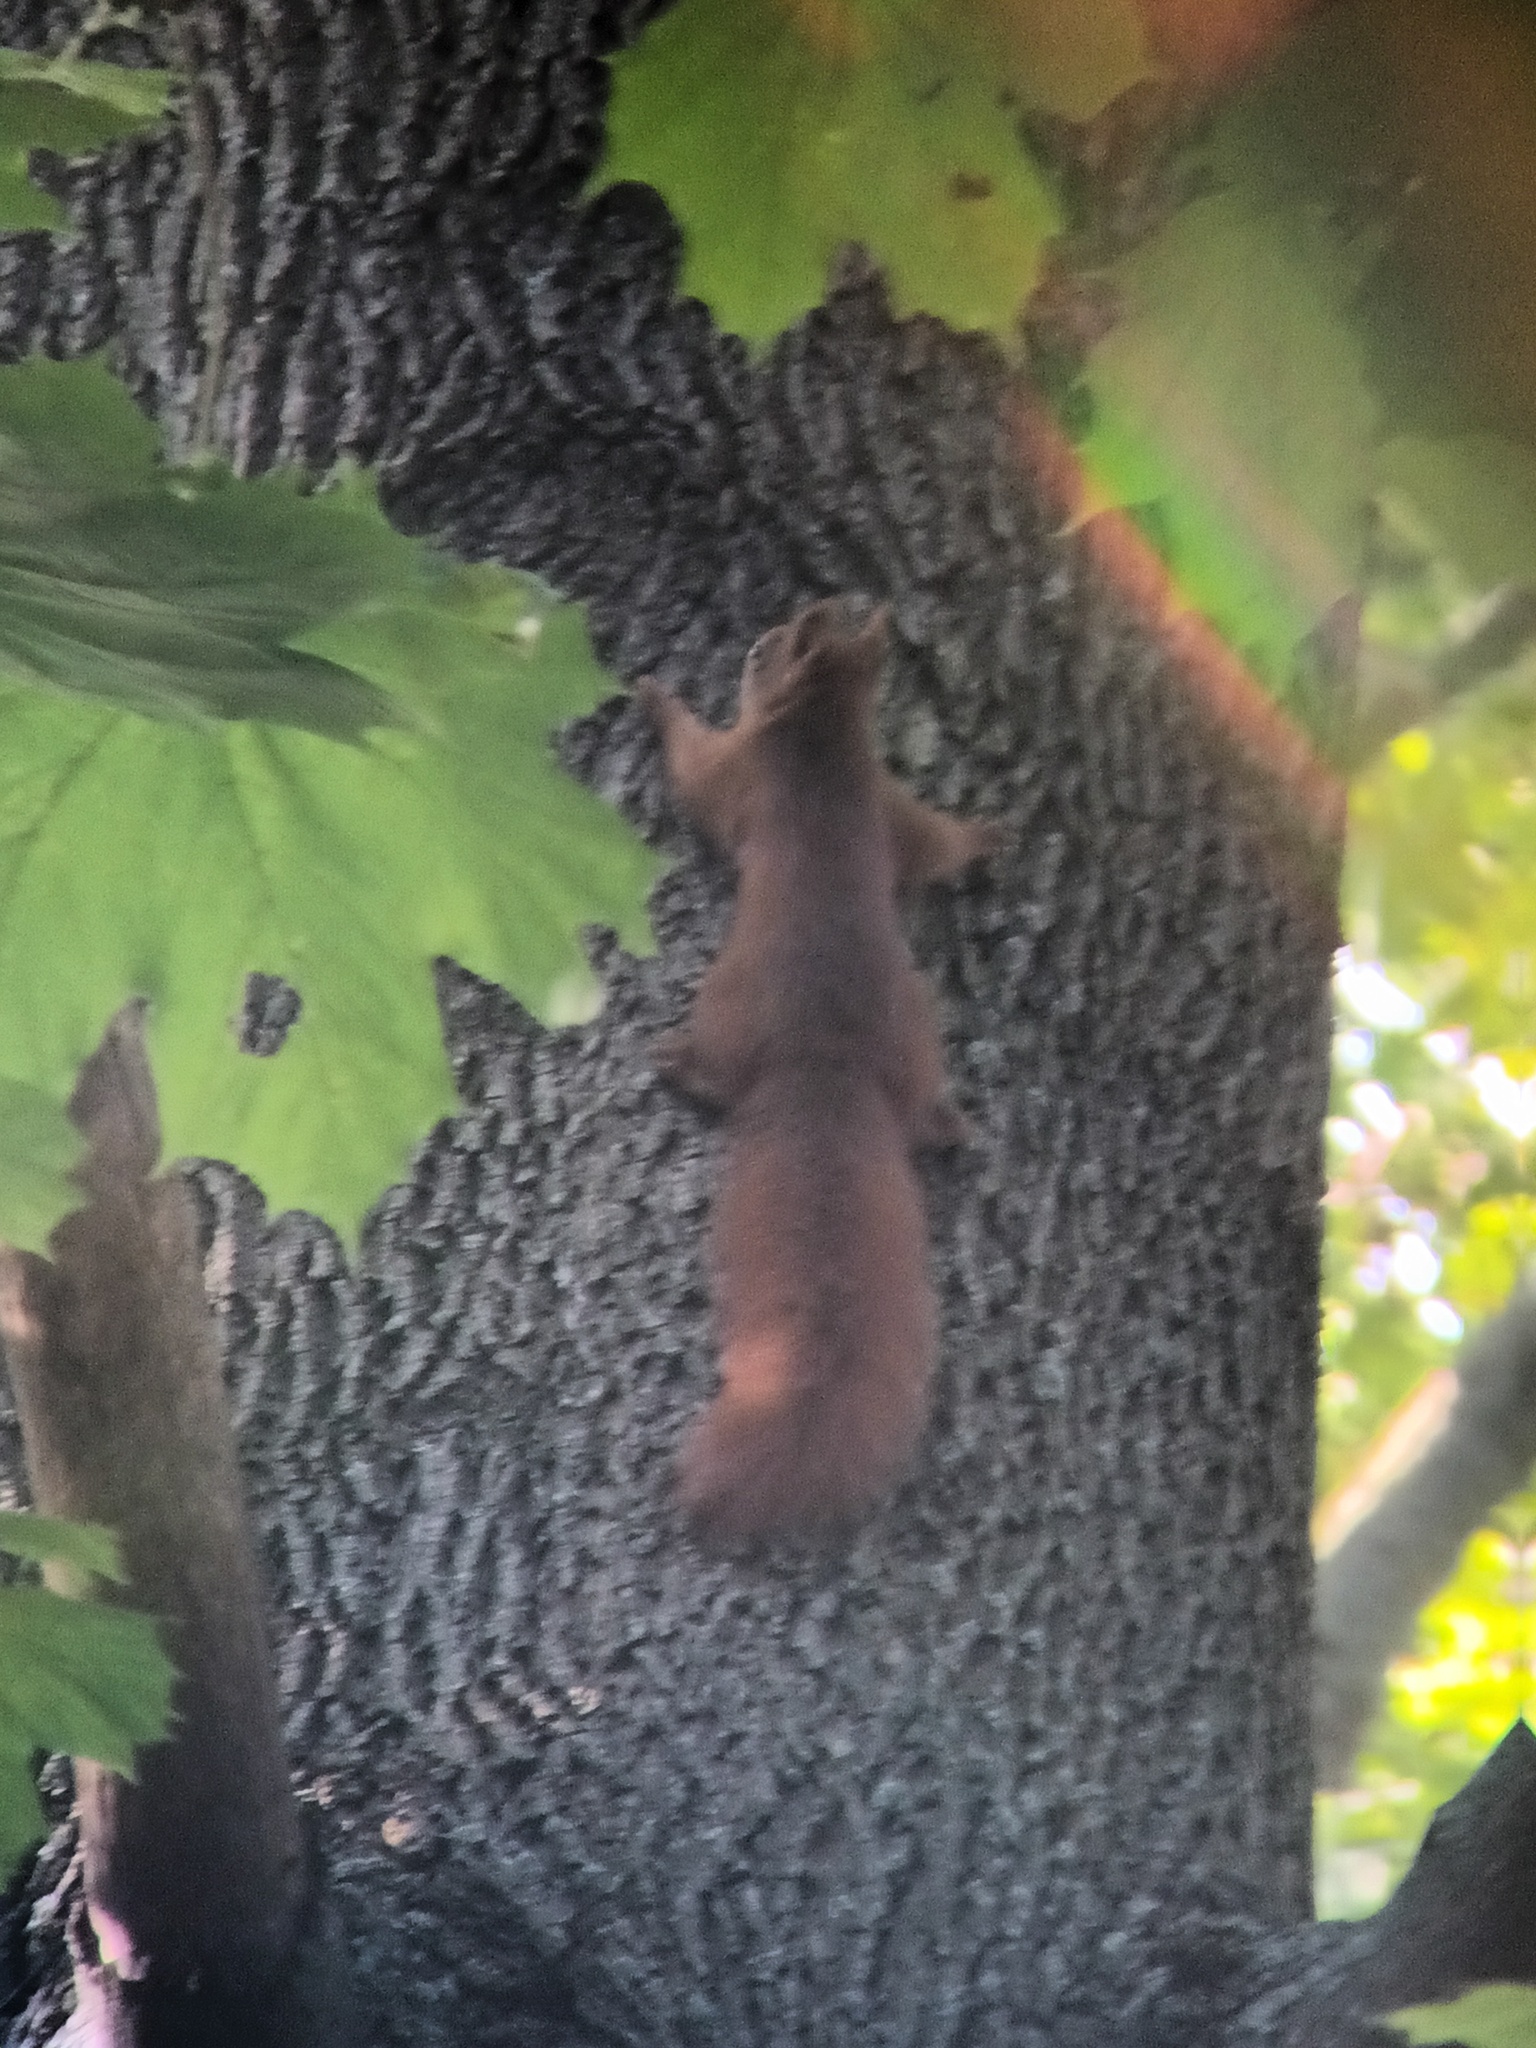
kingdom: Animalia
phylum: Chordata
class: Mammalia
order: Rodentia
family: Sciuridae
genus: Sciurus
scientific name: Sciurus vulgaris
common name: Eurasian red squirrel
